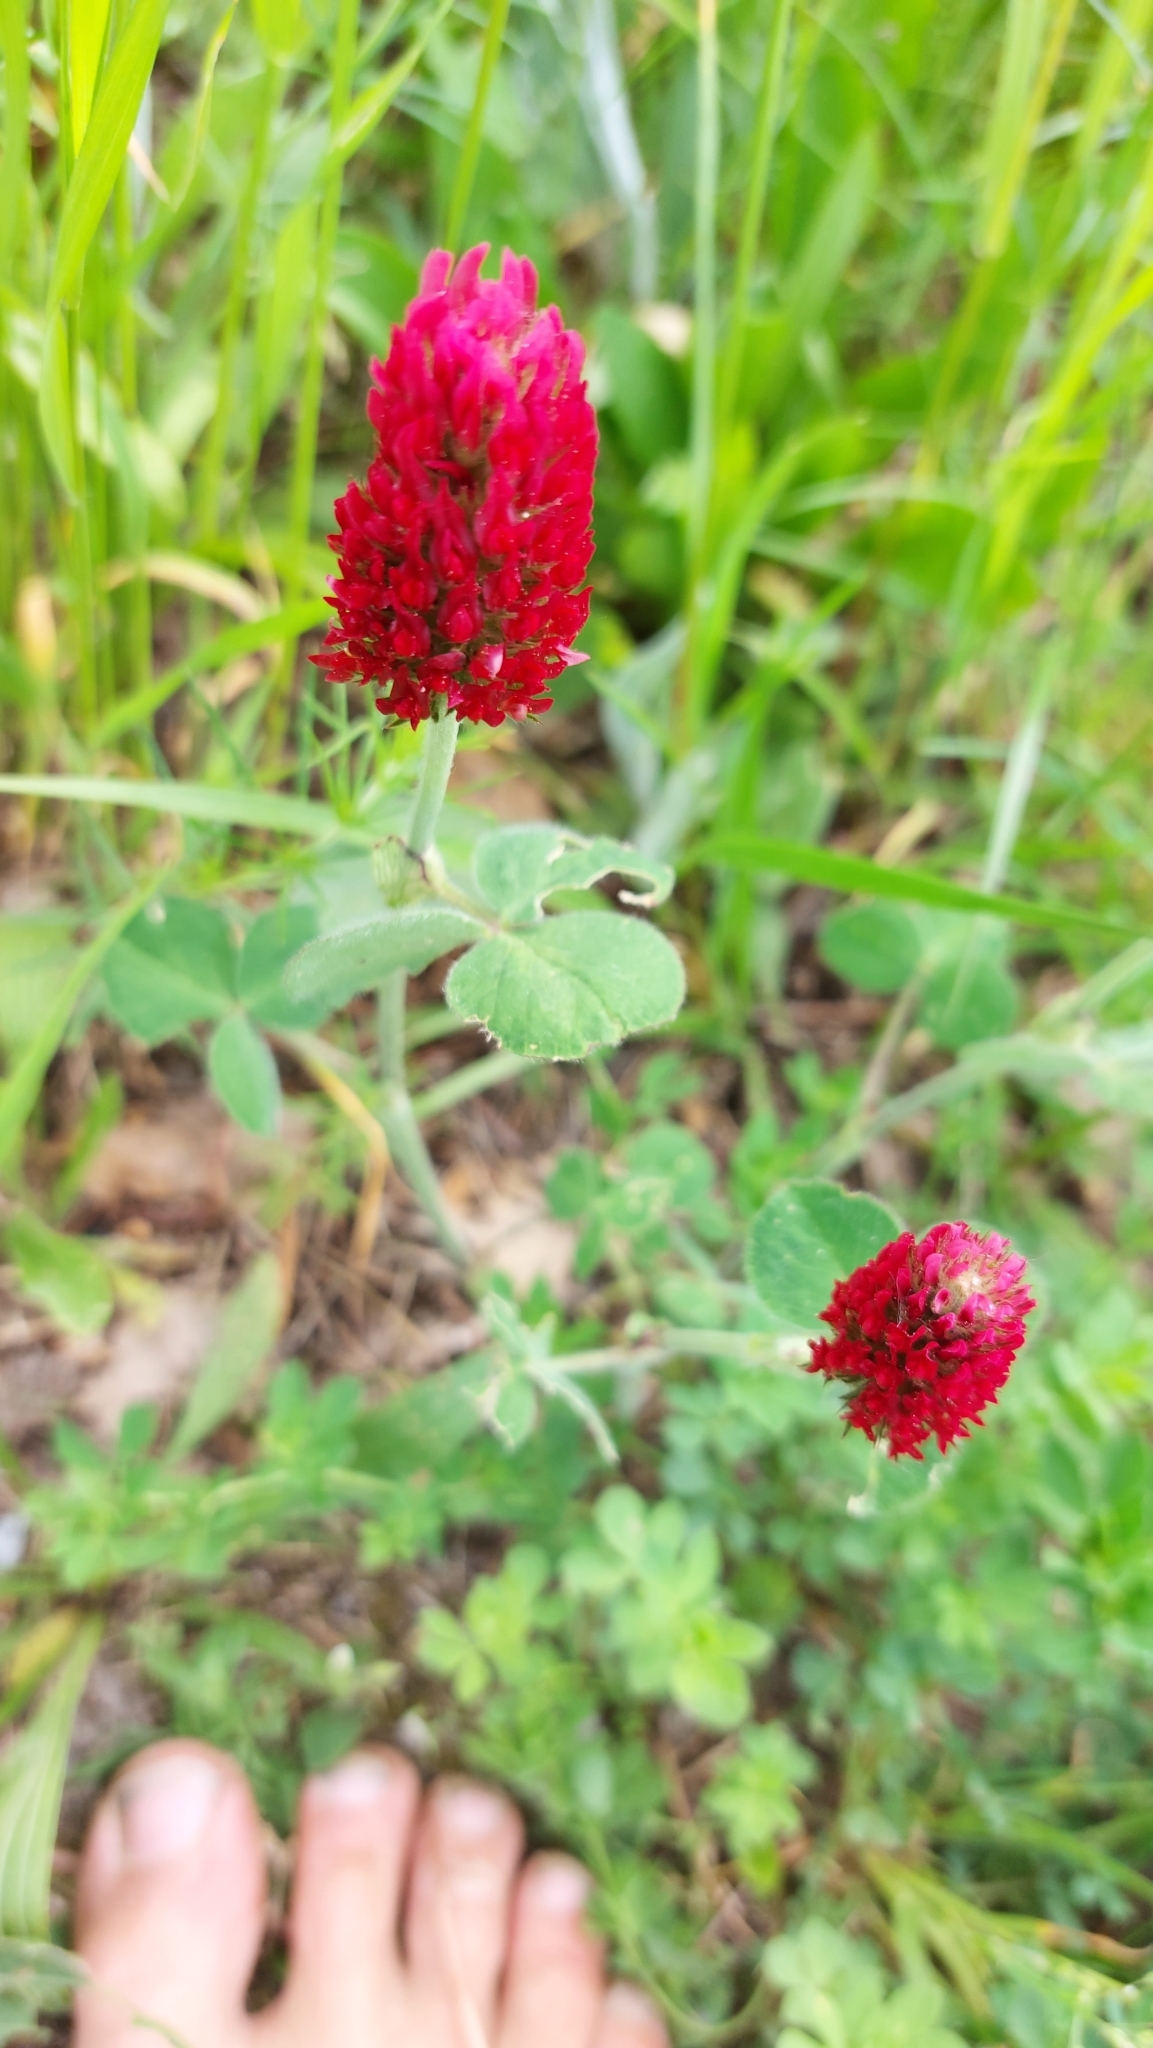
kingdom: Plantae
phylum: Tracheophyta
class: Magnoliopsida
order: Fabales
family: Fabaceae
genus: Trifolium
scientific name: Trifolium incarnatum
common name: Crimson clover
